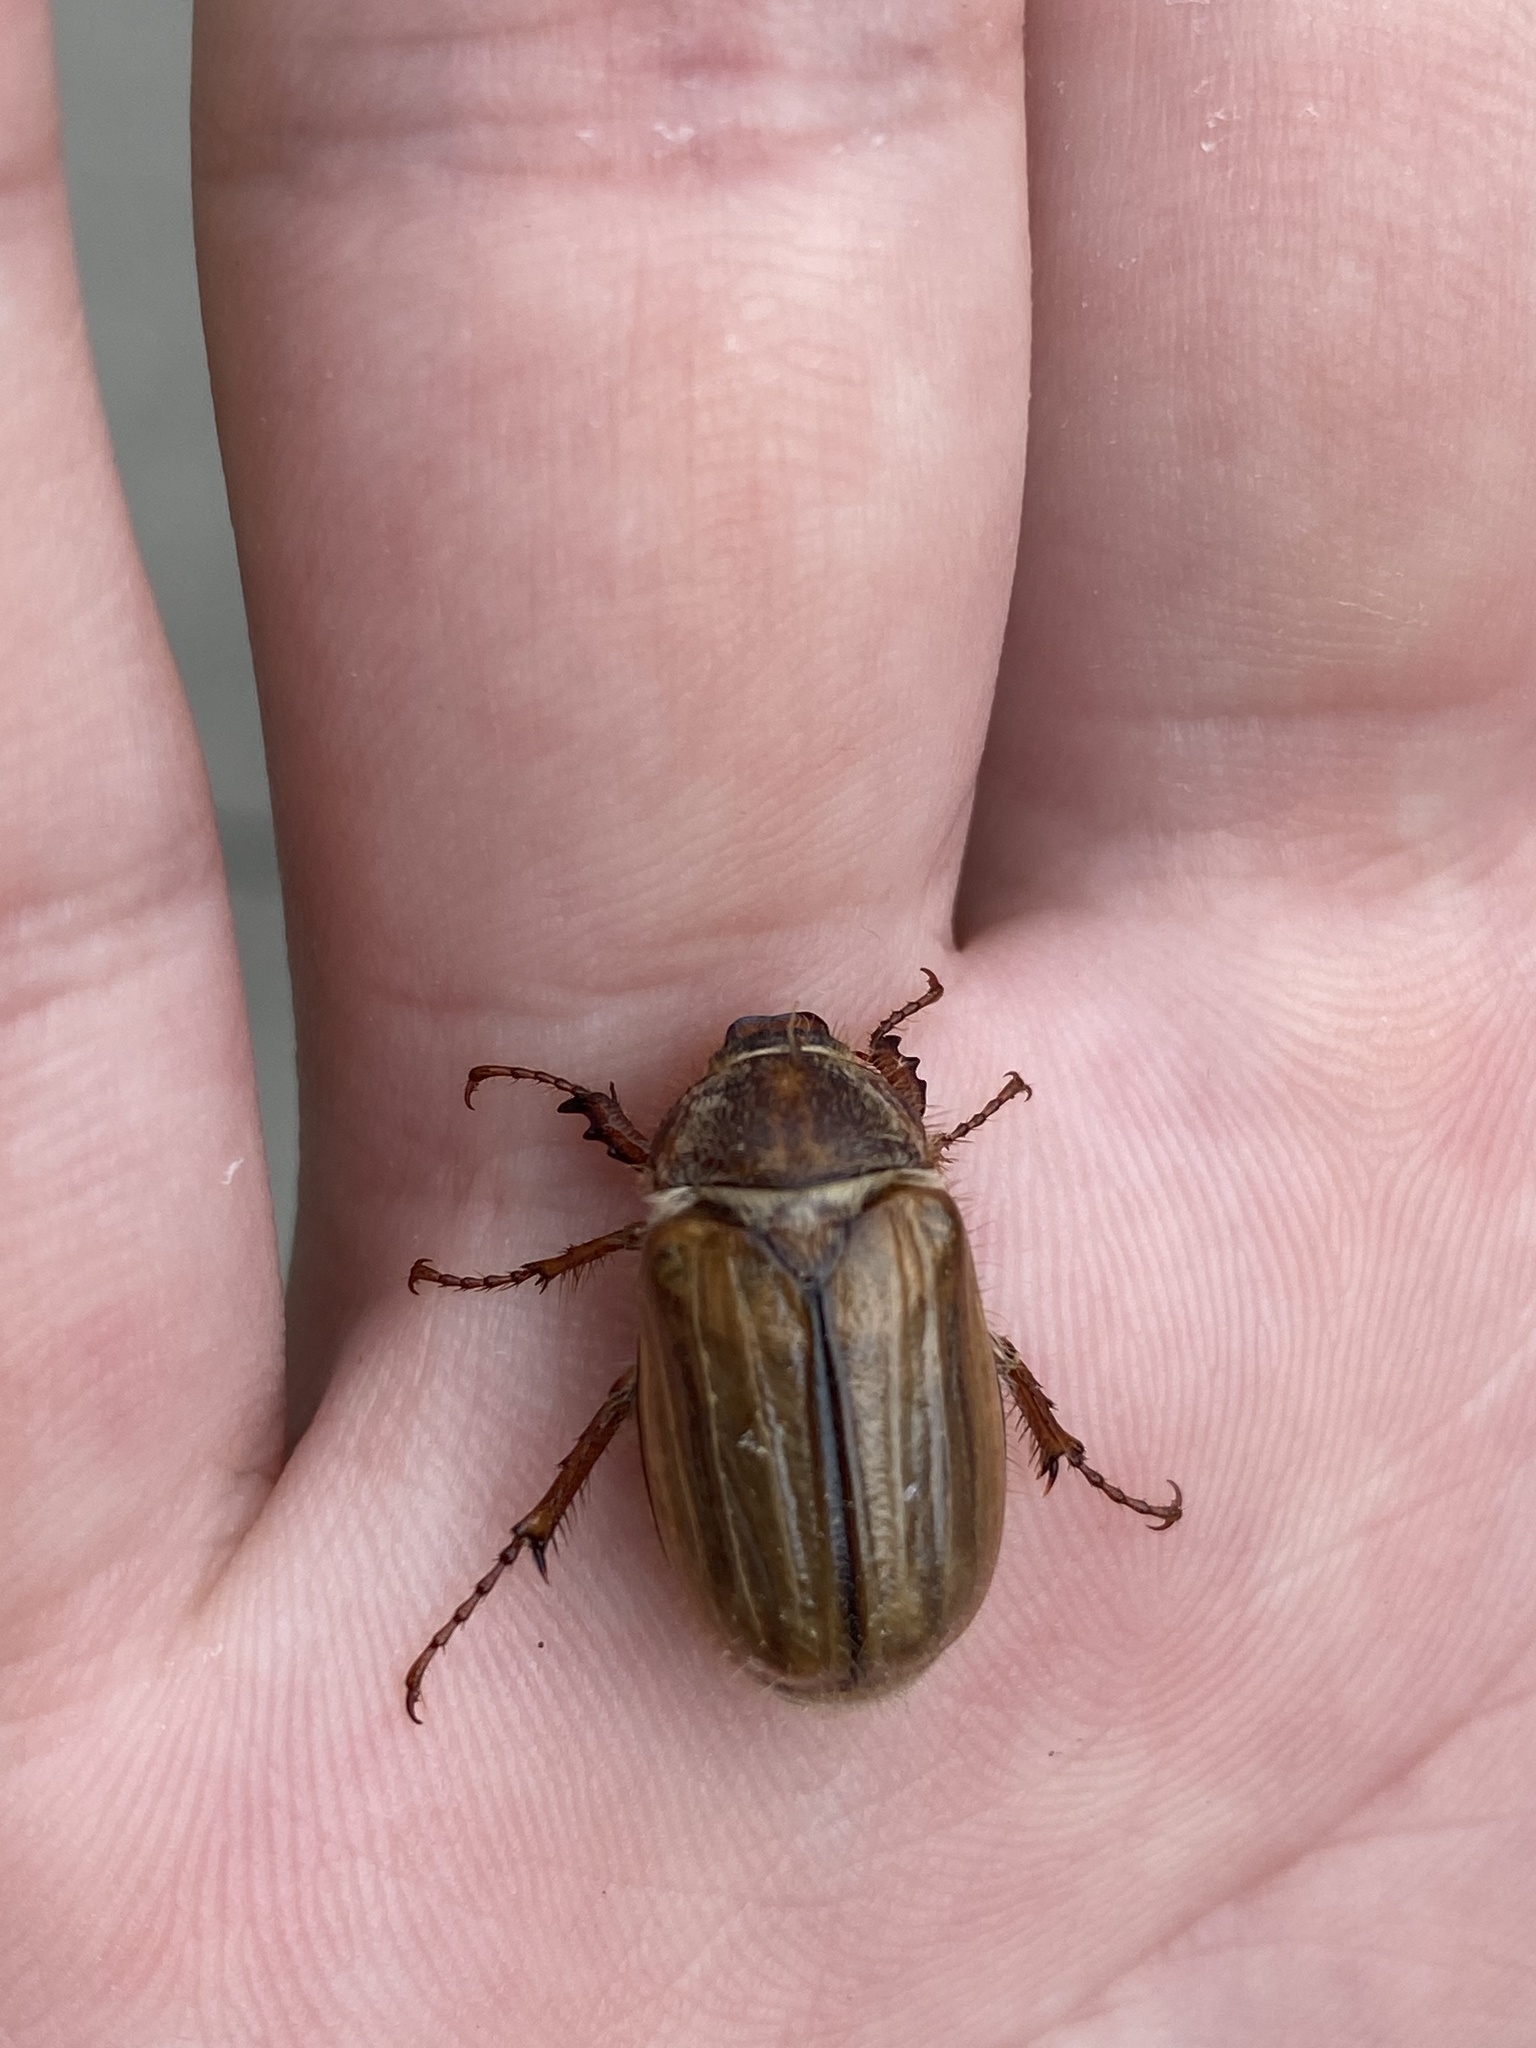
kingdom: Animalia
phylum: Arthropoda
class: Insecta
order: Coleoptera
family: Scarabaeidae
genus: Amphimallon
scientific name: Amphimallon solstitiale
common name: Summer chafer
